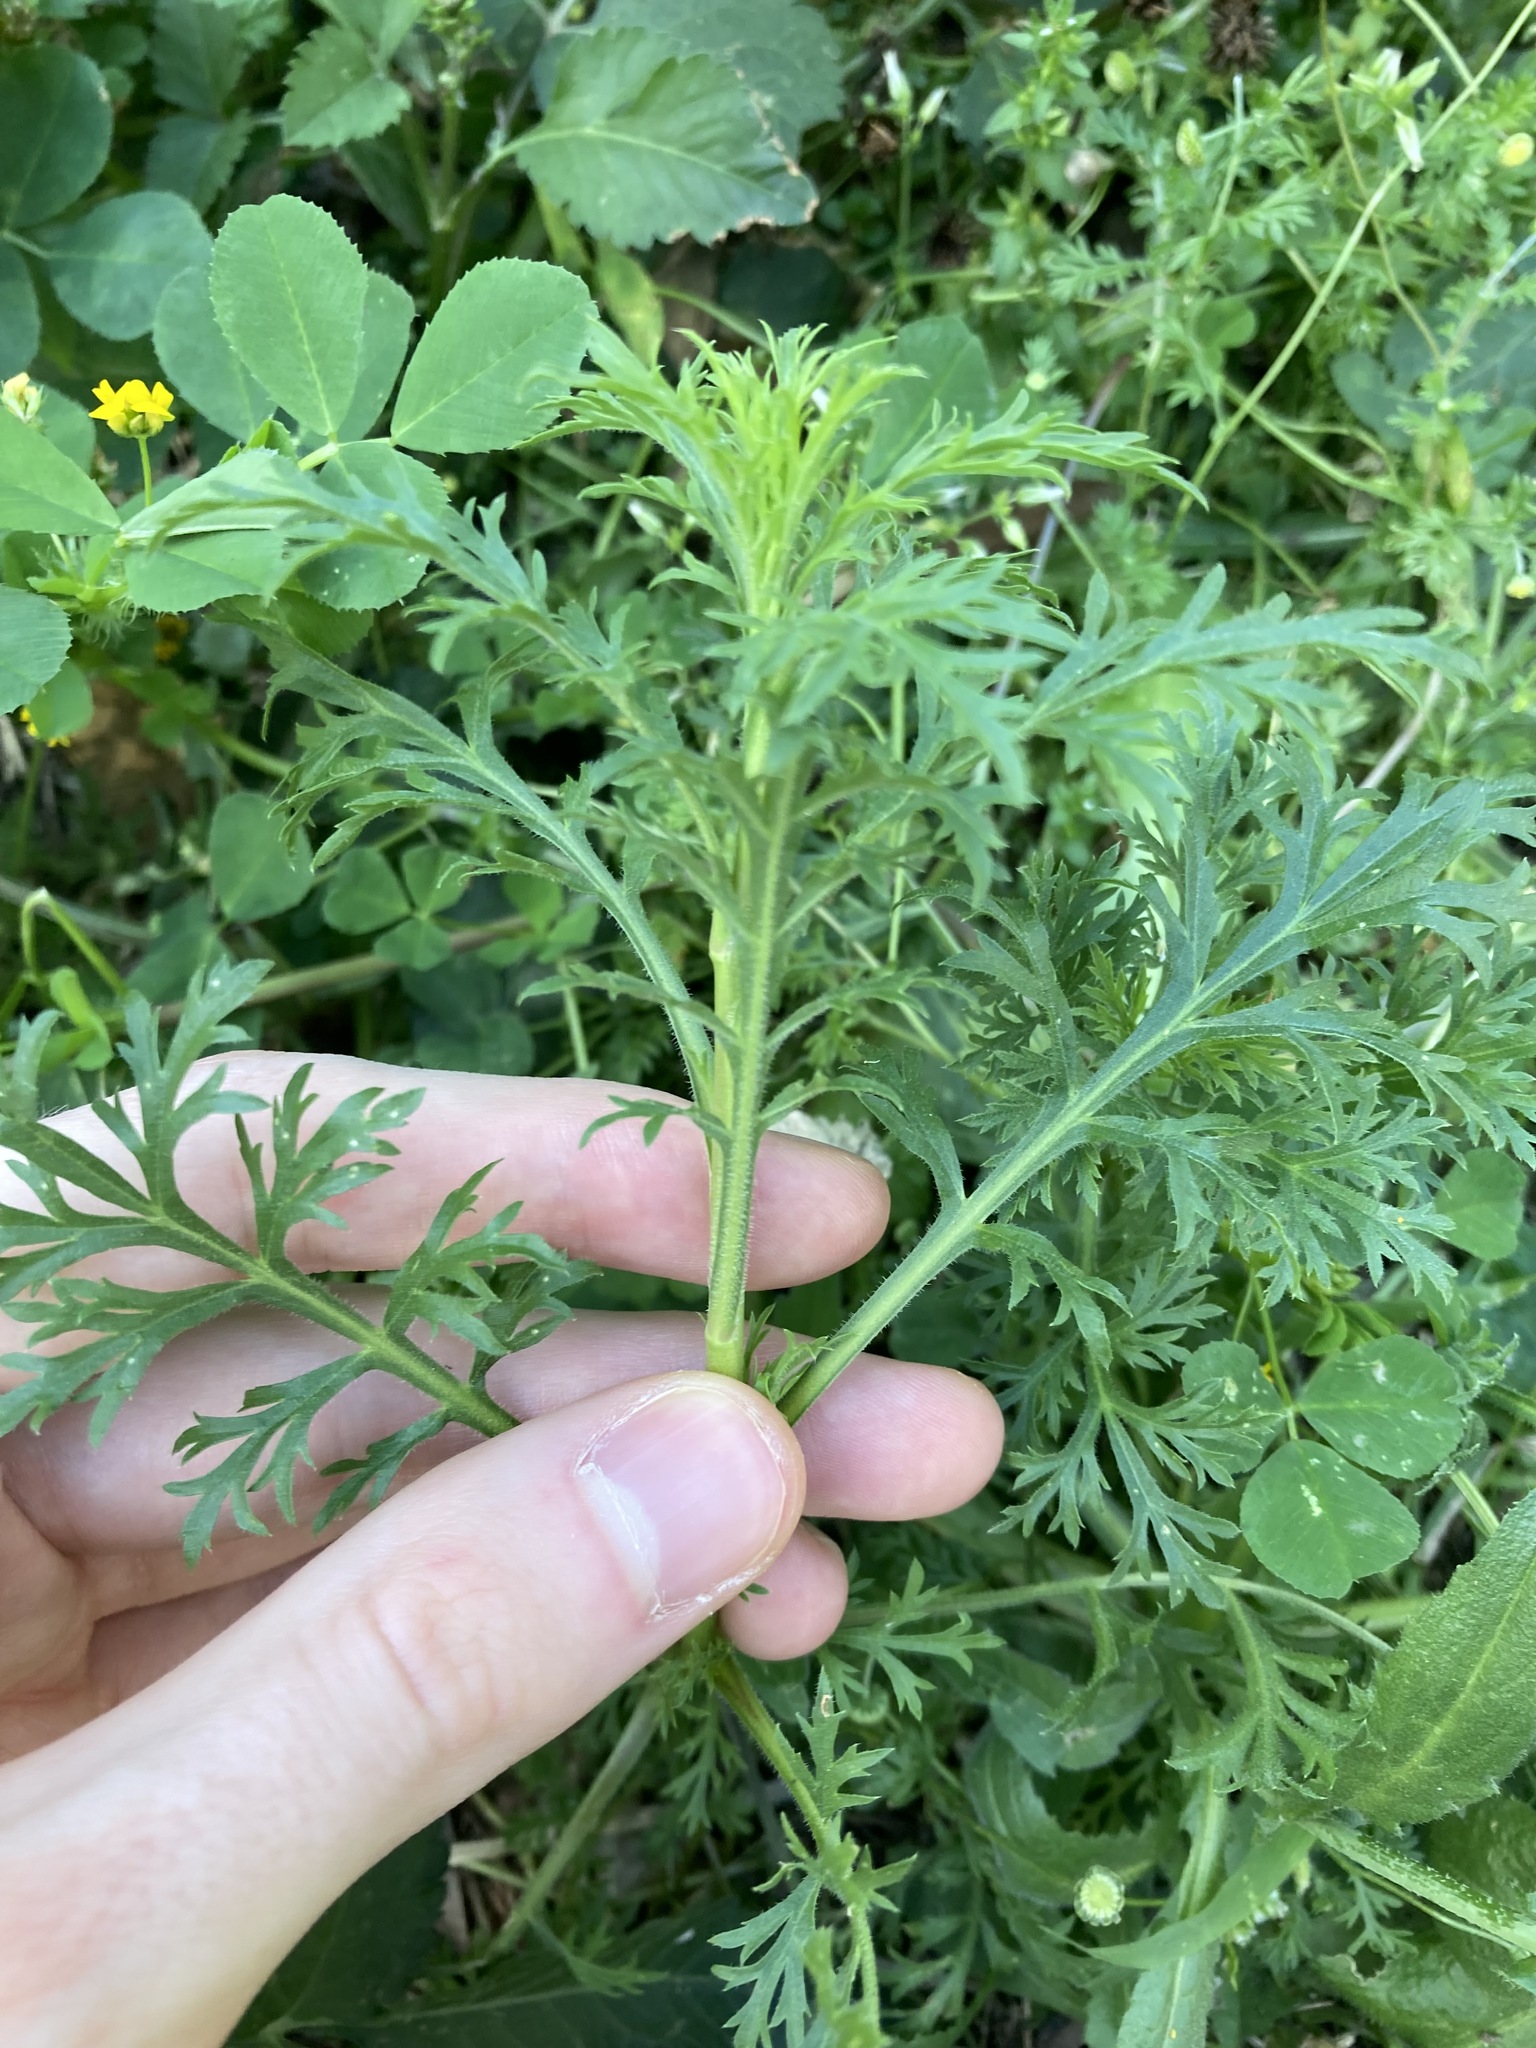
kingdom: Plantae
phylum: Tracheophyta
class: Magnoliopsida
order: Brassicales
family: Brassicaceae
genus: Lepidium
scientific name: Lepidium bonariense
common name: Argentine pepperwort
